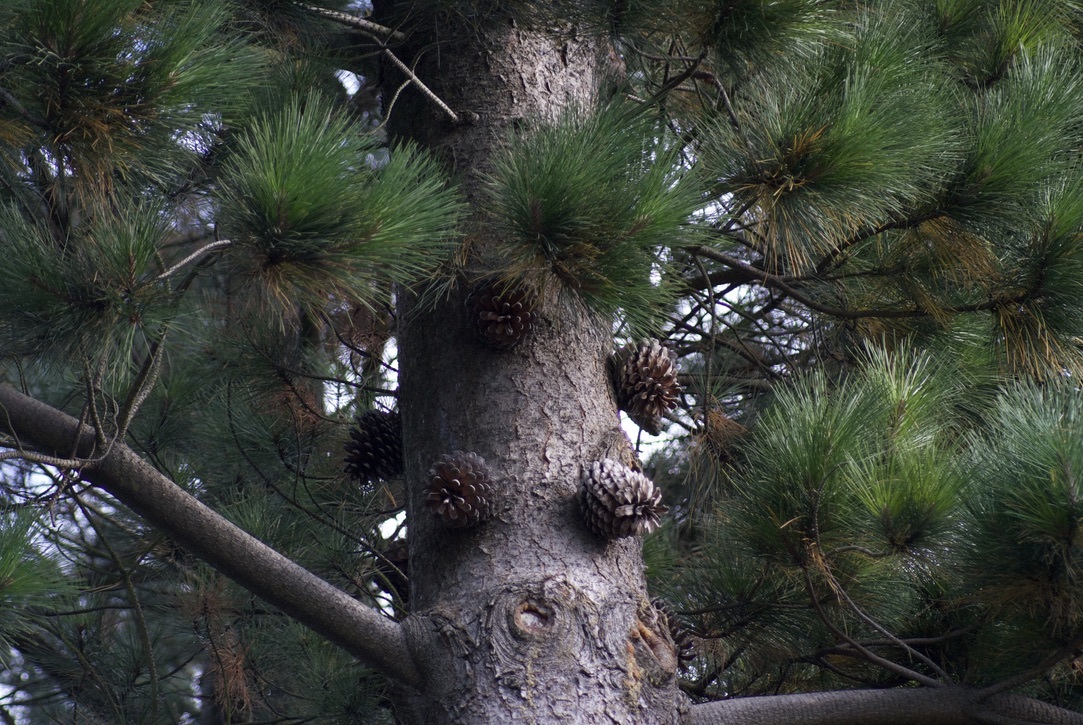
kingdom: Plantae
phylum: Tracheophyta
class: Pinopsida
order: Pinales
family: Pinaceae
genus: Pinus
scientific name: Pinus radiata
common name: Monterey pine
